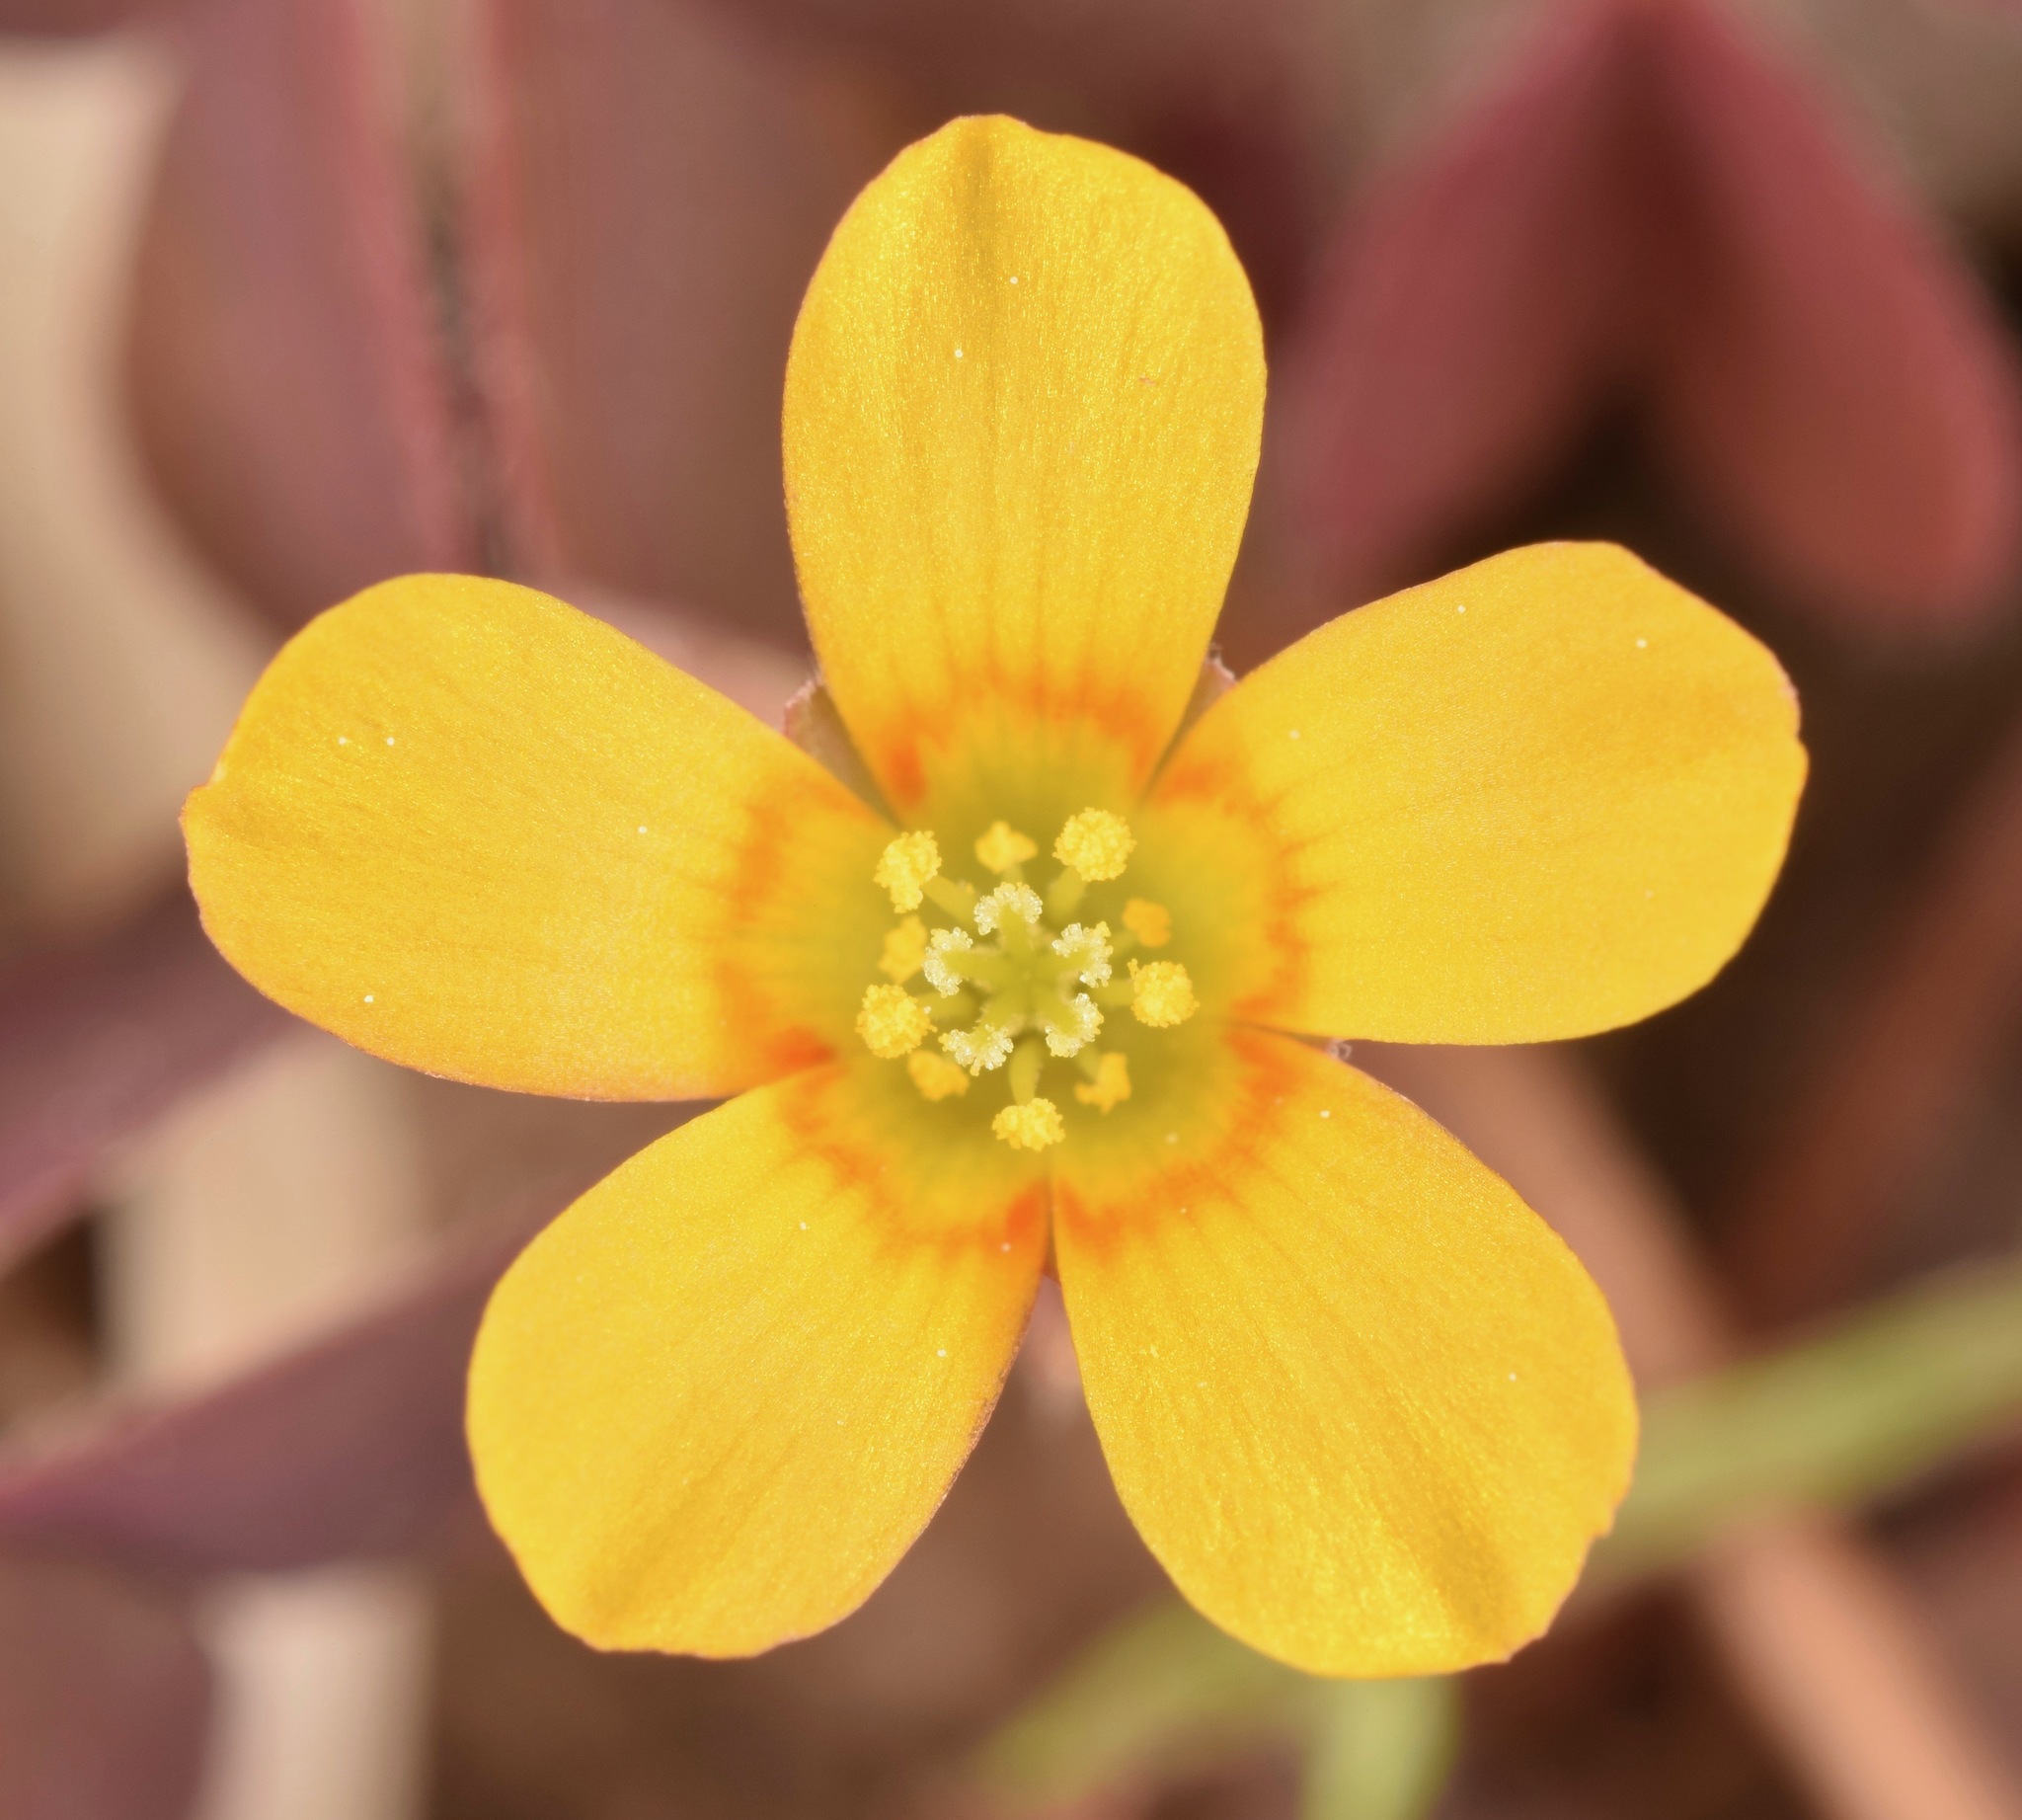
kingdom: Plantae
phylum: Tracheophyta
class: Magnoliopsida
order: Oxalidales
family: Oxalidaceae
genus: Oxalis
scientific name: Oxalis corniculata
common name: Procumbent yellow-sorrel
